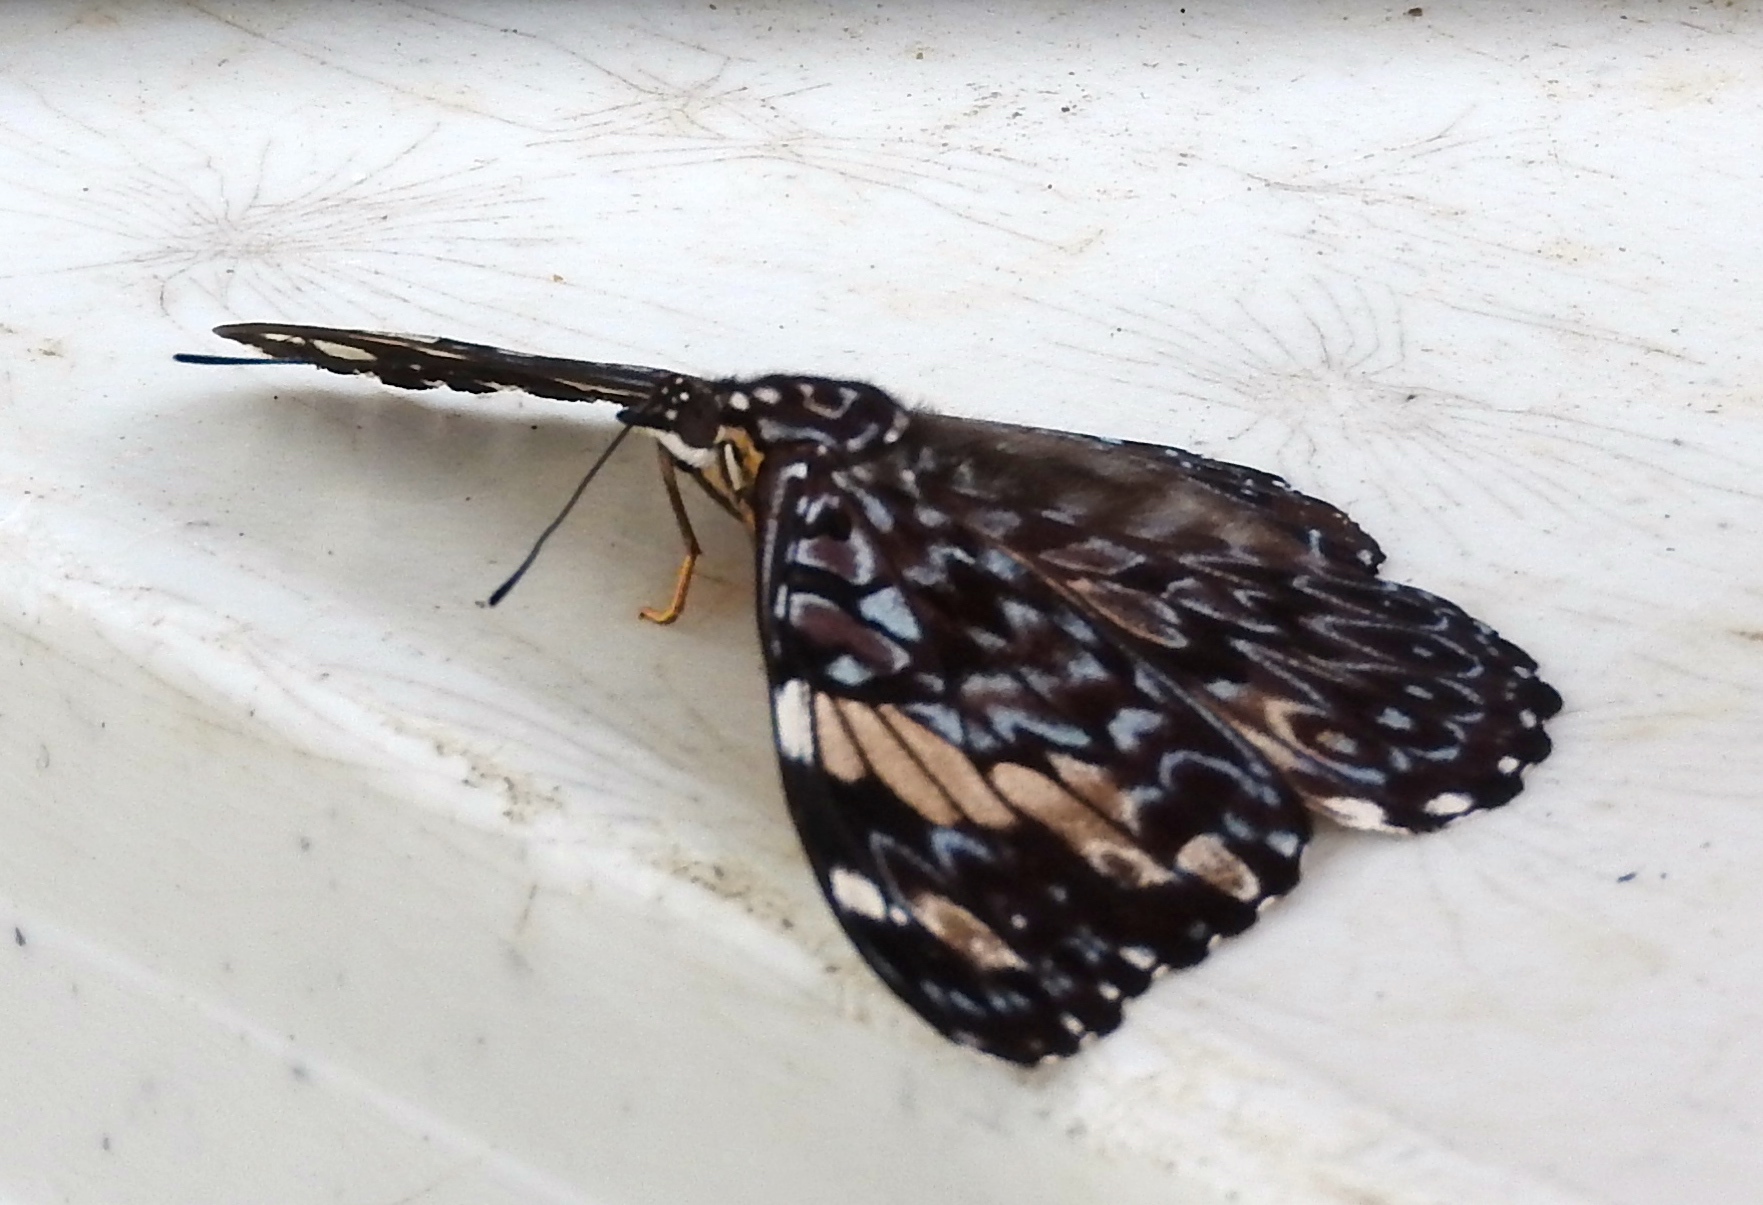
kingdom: Animalia
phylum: Arthropoda
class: Insecta
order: Lepidoptera
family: Nymphalidae
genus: Hamadryas
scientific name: Hamadryas amphinome
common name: Red cracker
